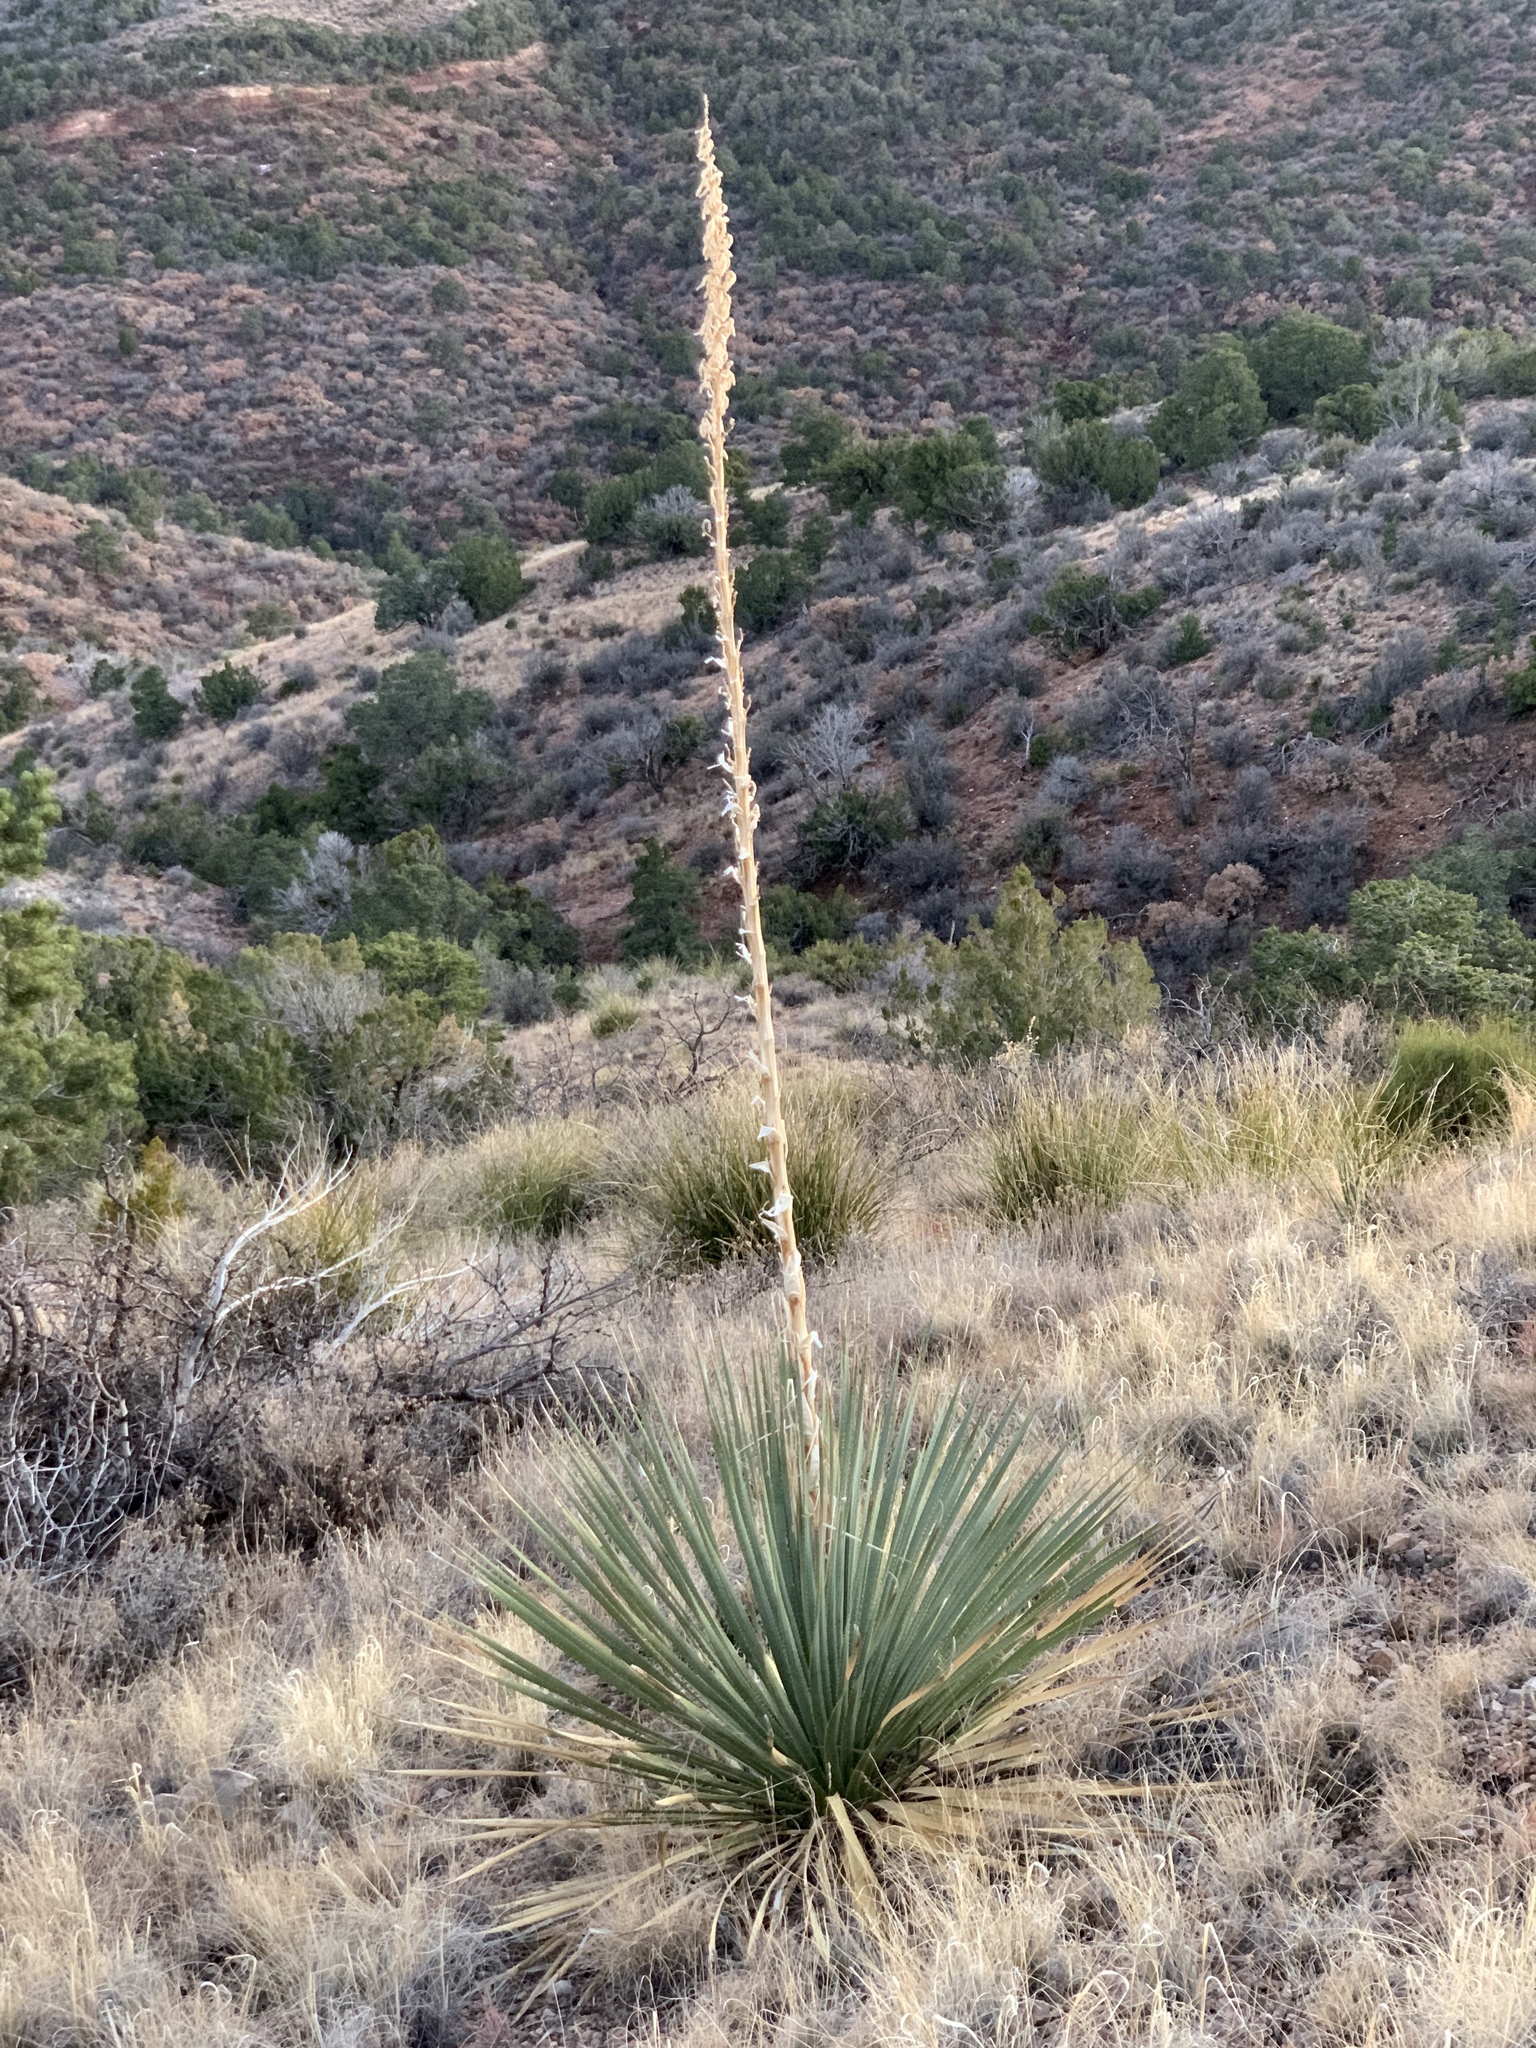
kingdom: Plantae
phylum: Tracheophyta
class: Liliopsida
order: Asparagales
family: Asparagaceae
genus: Dasylirion
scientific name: Dasylirion wheeleri
